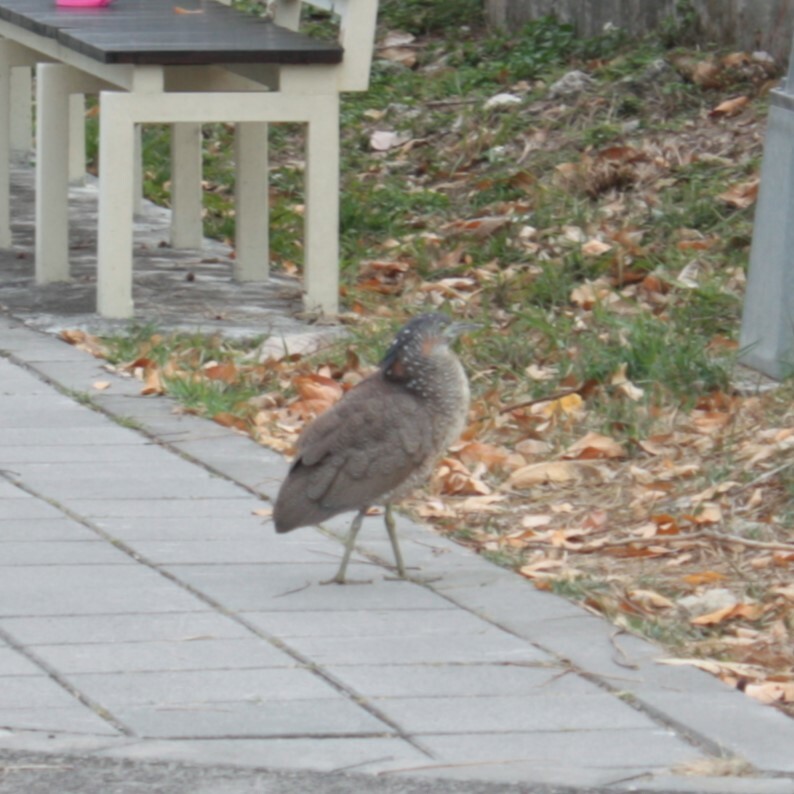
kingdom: Animalia
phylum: Chordata
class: Aves
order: Pelecaniformes
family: Ardeidae
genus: Gorsachius
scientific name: Gorsachius melanolophus
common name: Malayan night heron
